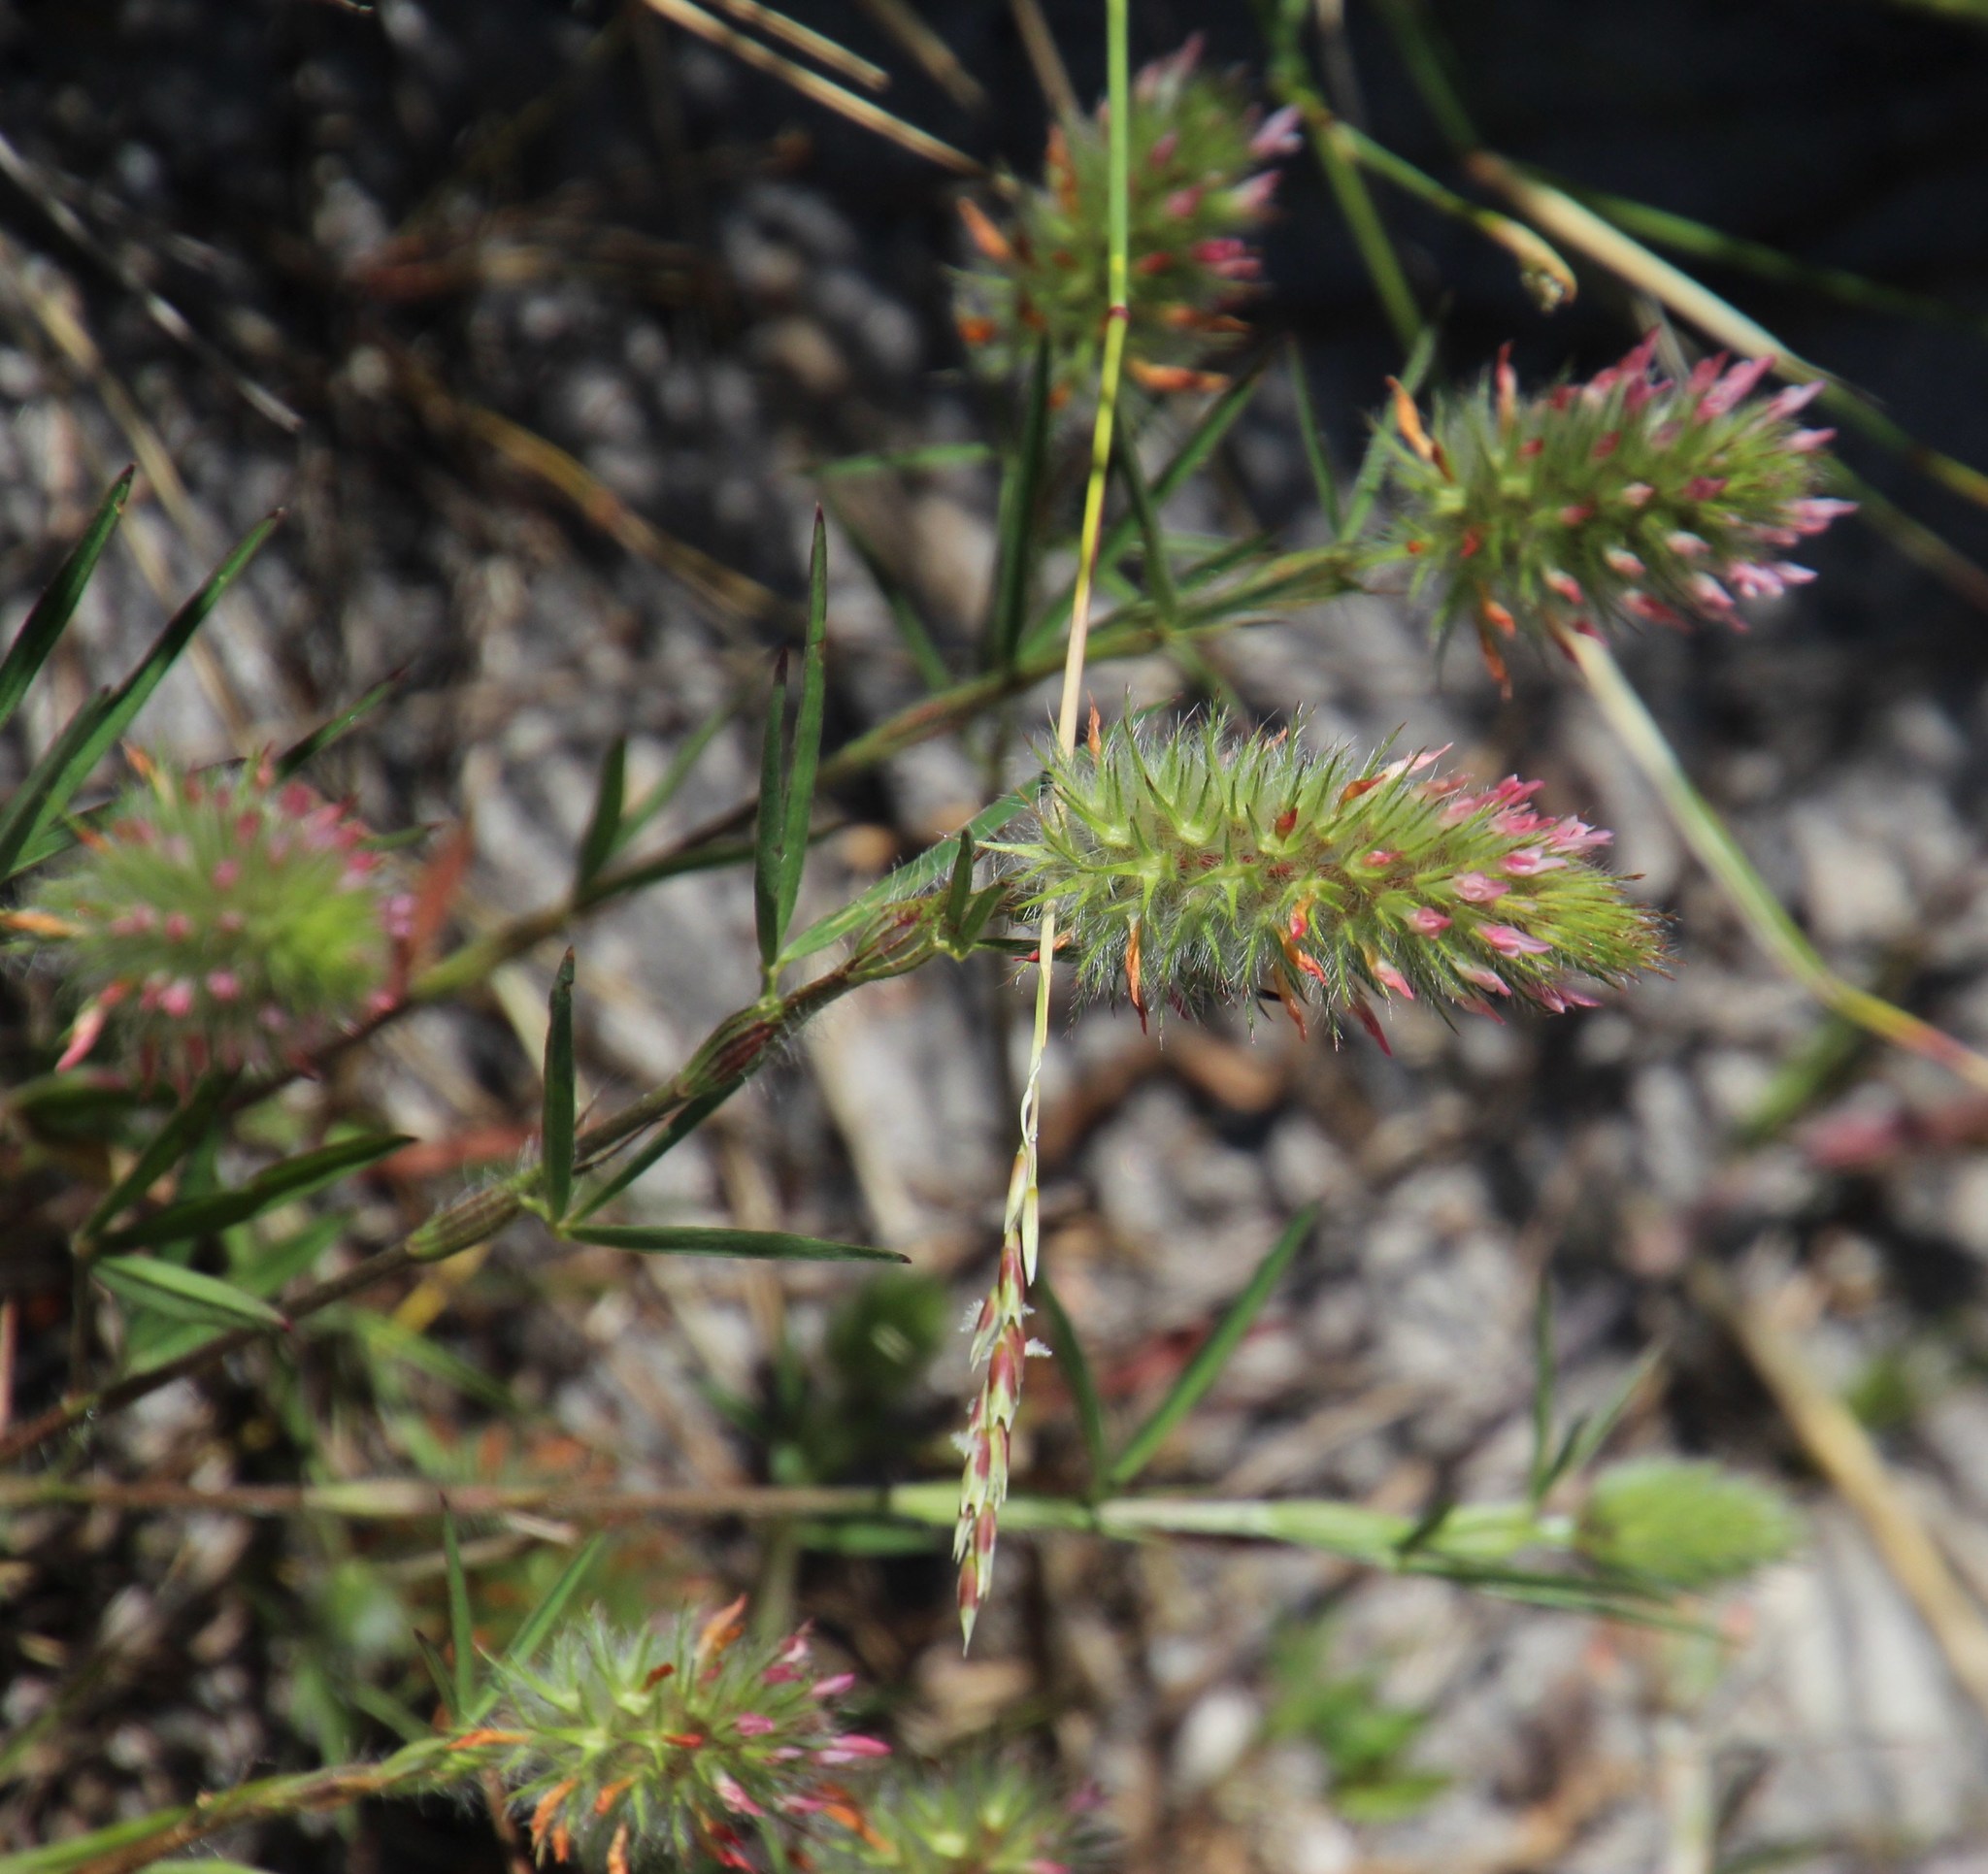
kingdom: Plantae
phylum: Tracheophyta
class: Magnoliopsida
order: Fabales
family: Fabaceae
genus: Trifolium
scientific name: Trifolium angustifolium
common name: Narrow clover
